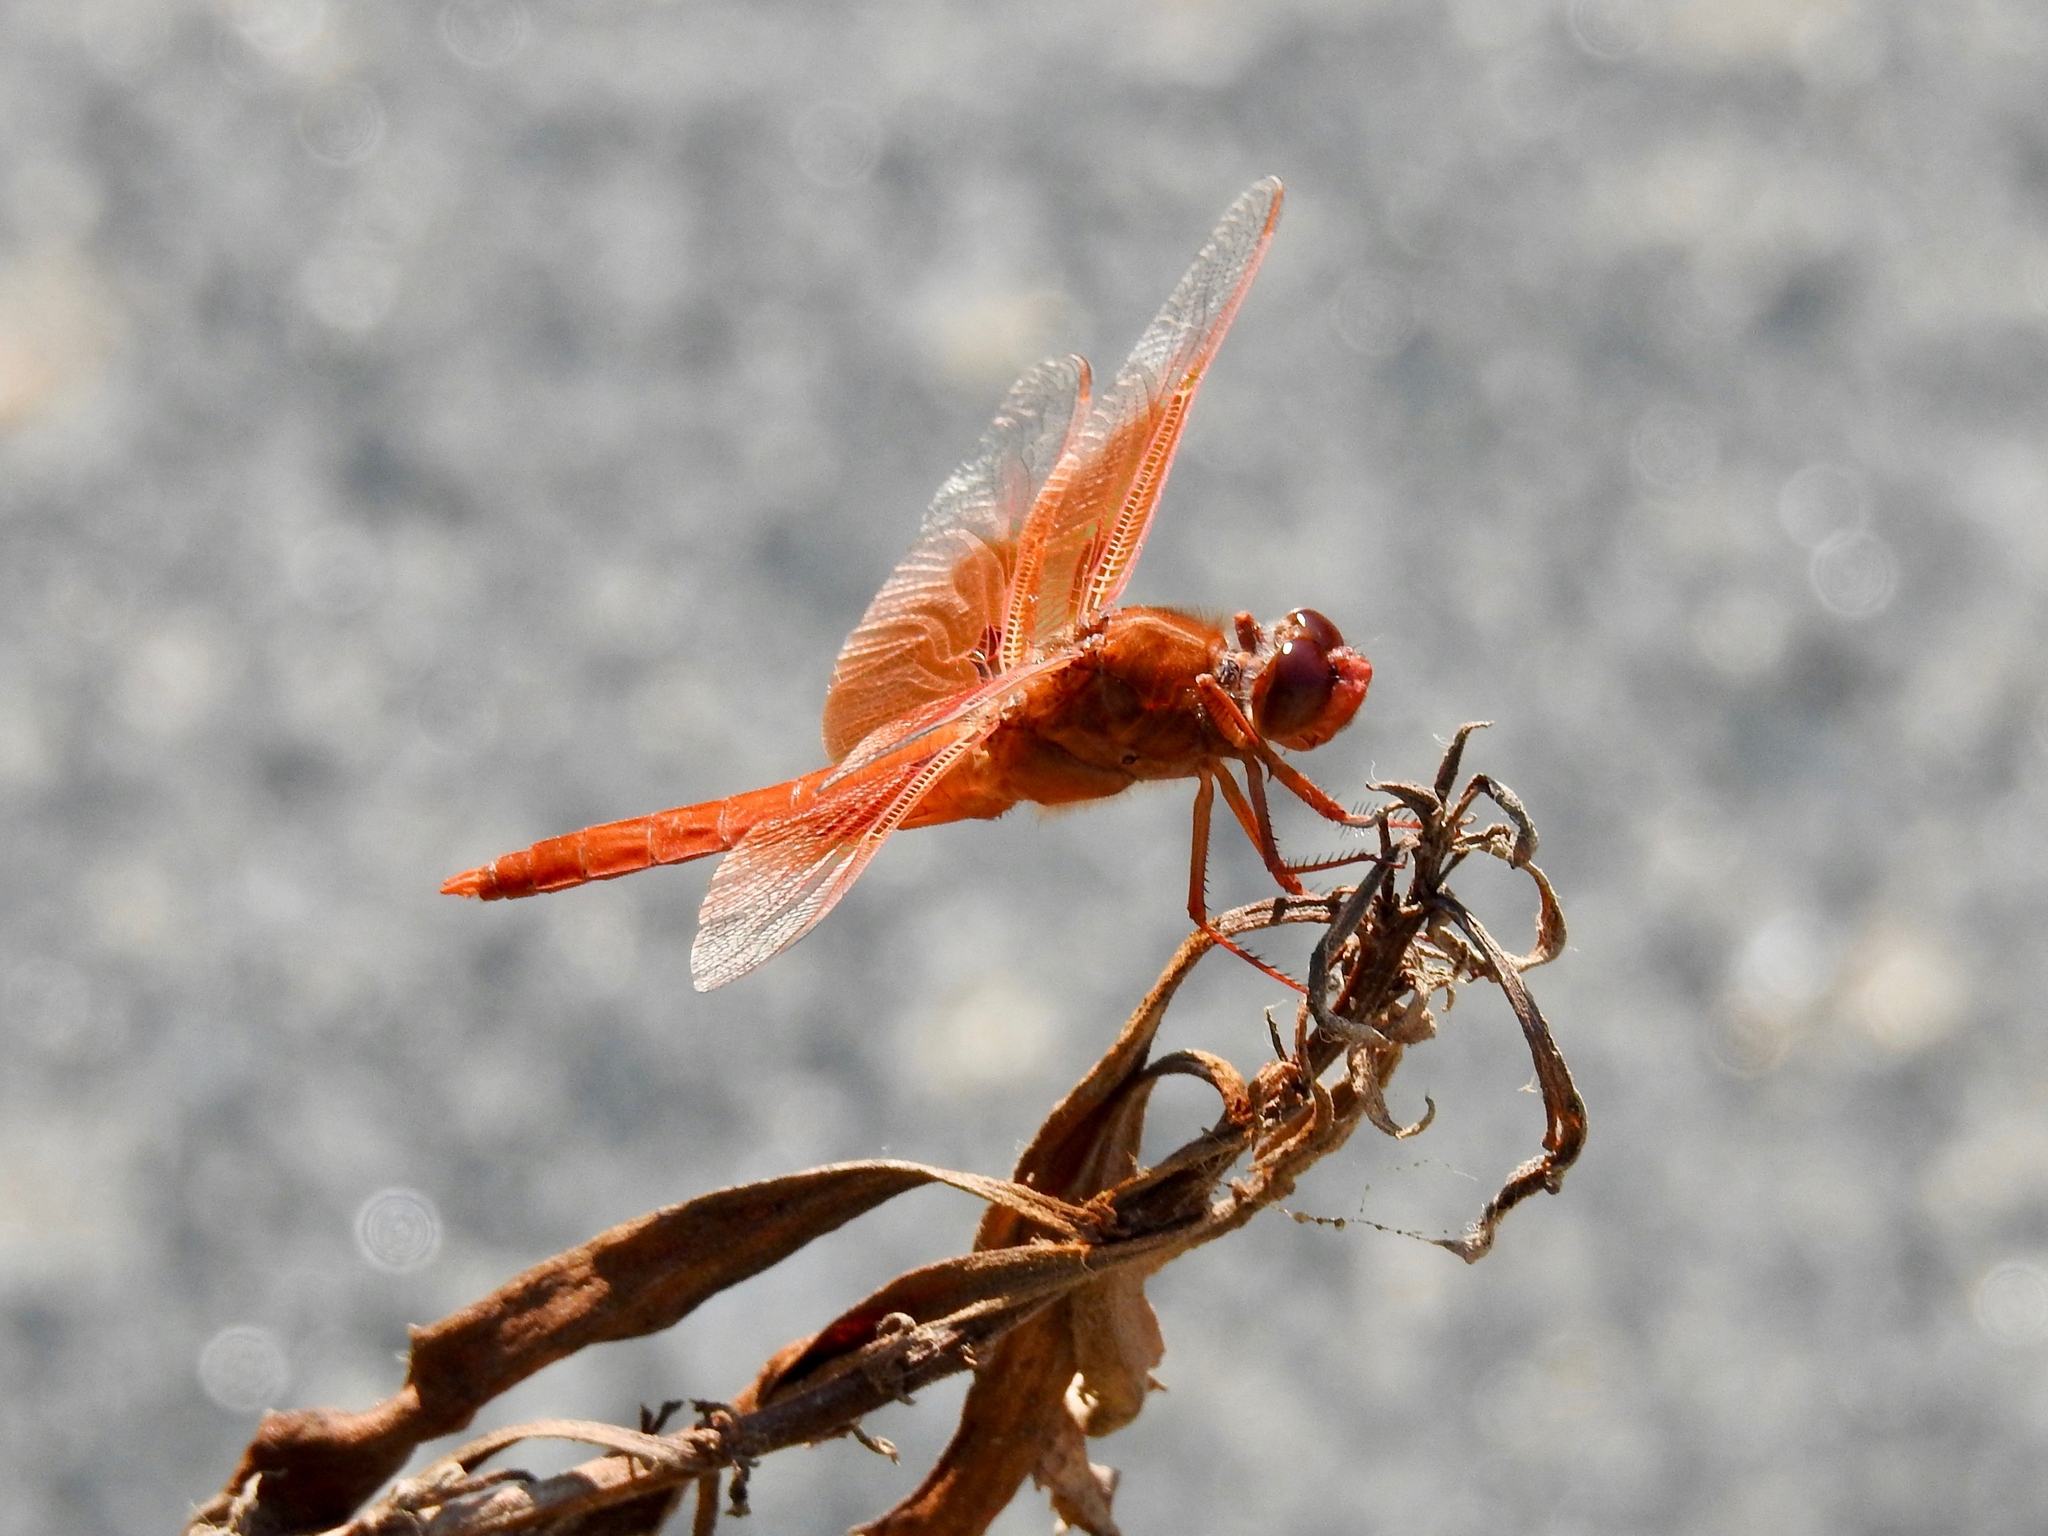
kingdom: Animalia
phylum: Arthropoda
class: Insecta
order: Odonata
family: Libellulidae
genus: Libellula
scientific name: Libellula saturata
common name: Flame skimmer
